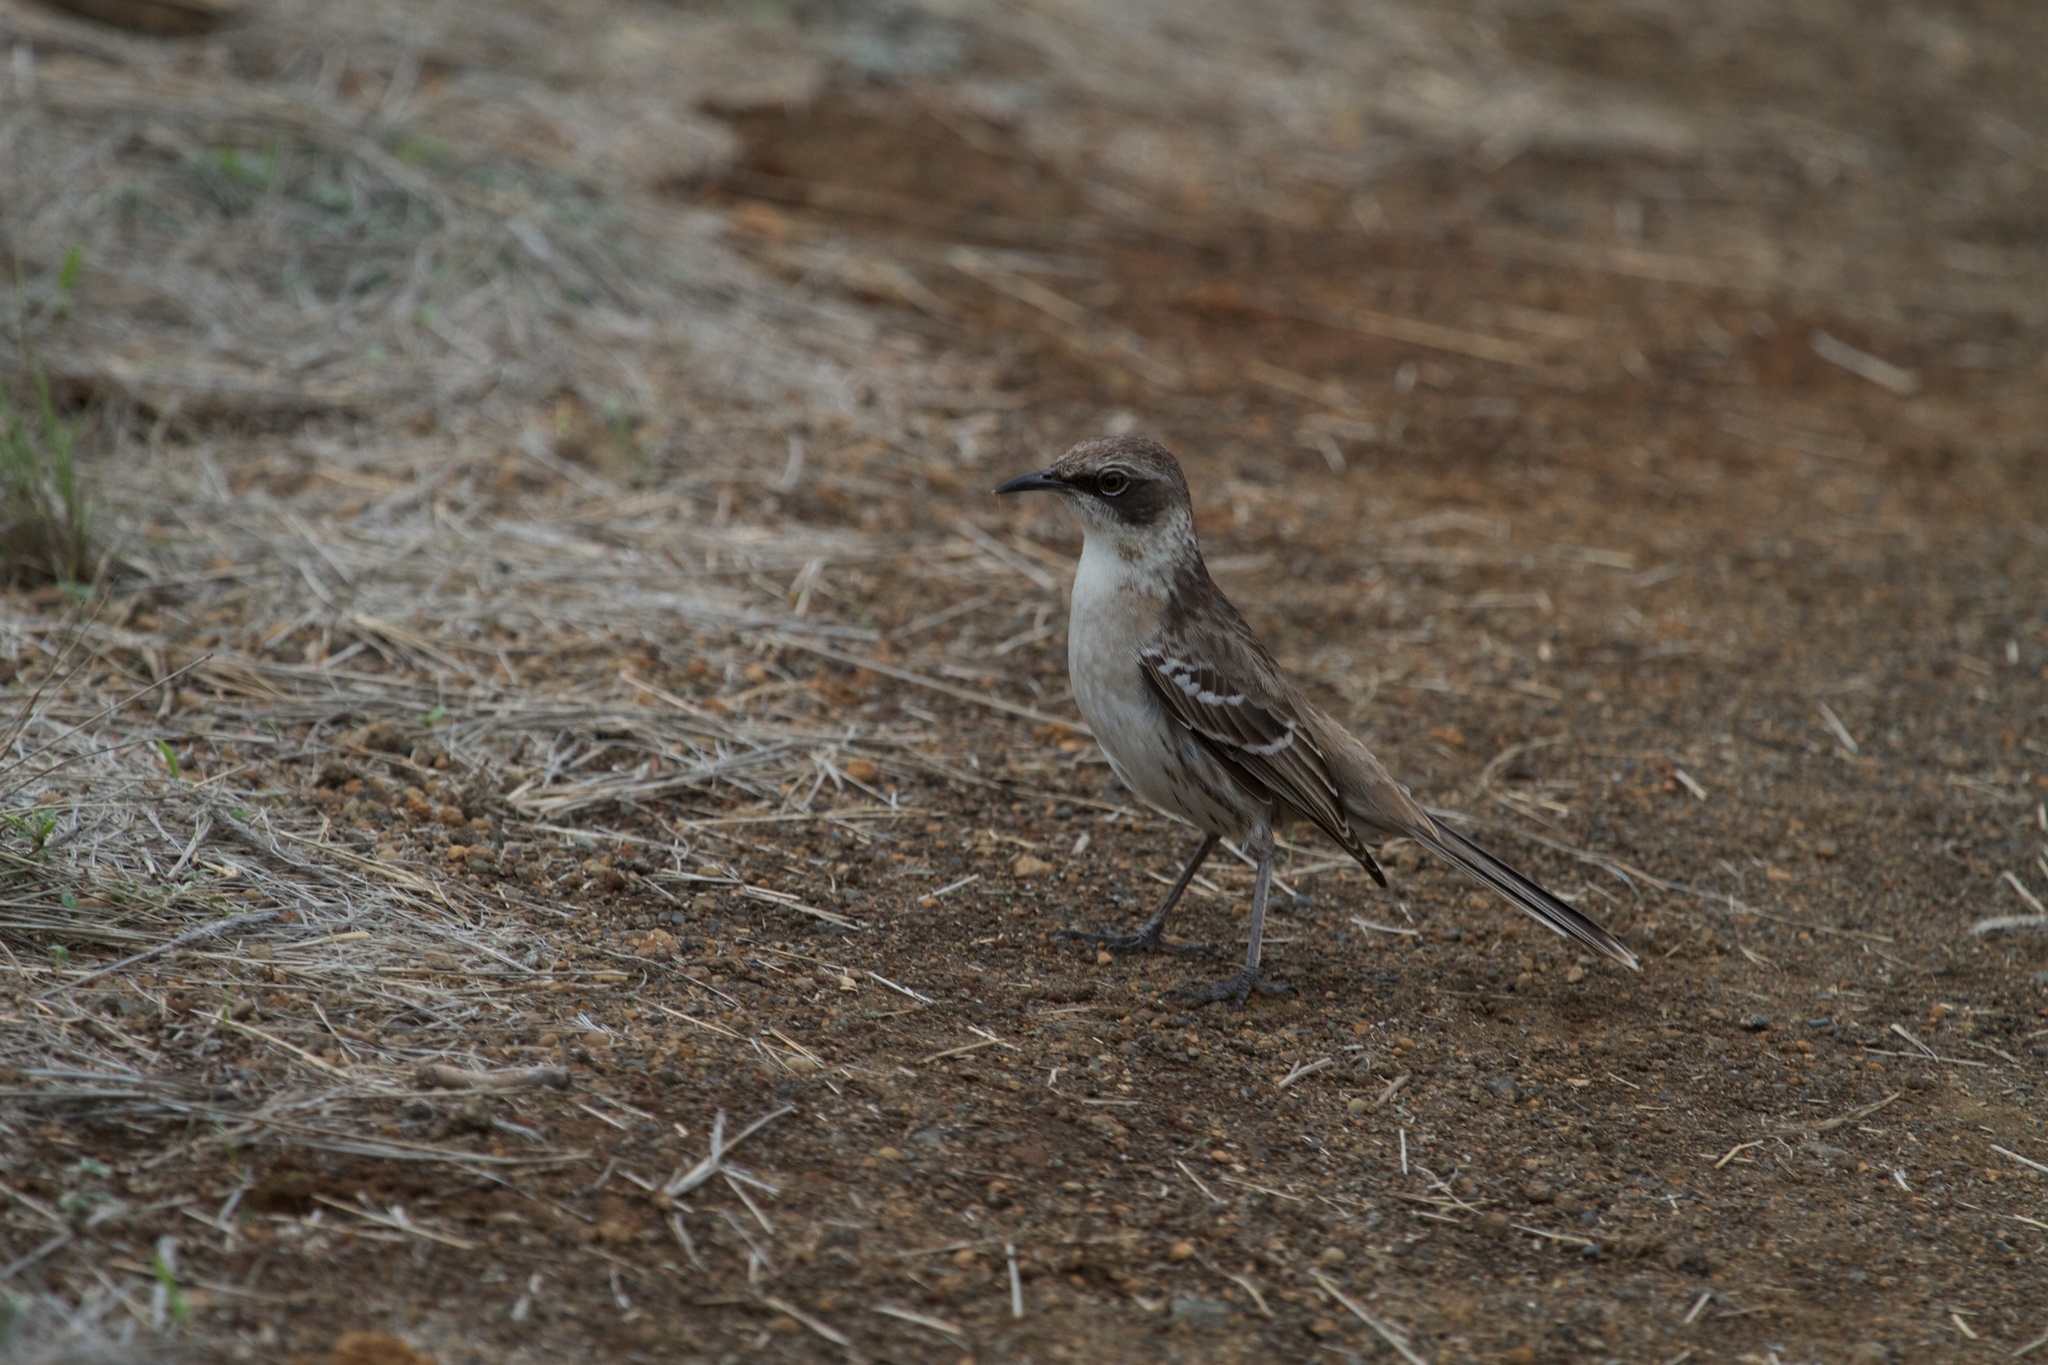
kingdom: Animalia
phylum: Chordata
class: Aves
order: Passeriformes
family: Mimidae
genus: Mimus
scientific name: Mimus parvulus
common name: Galapagos mockingbird
